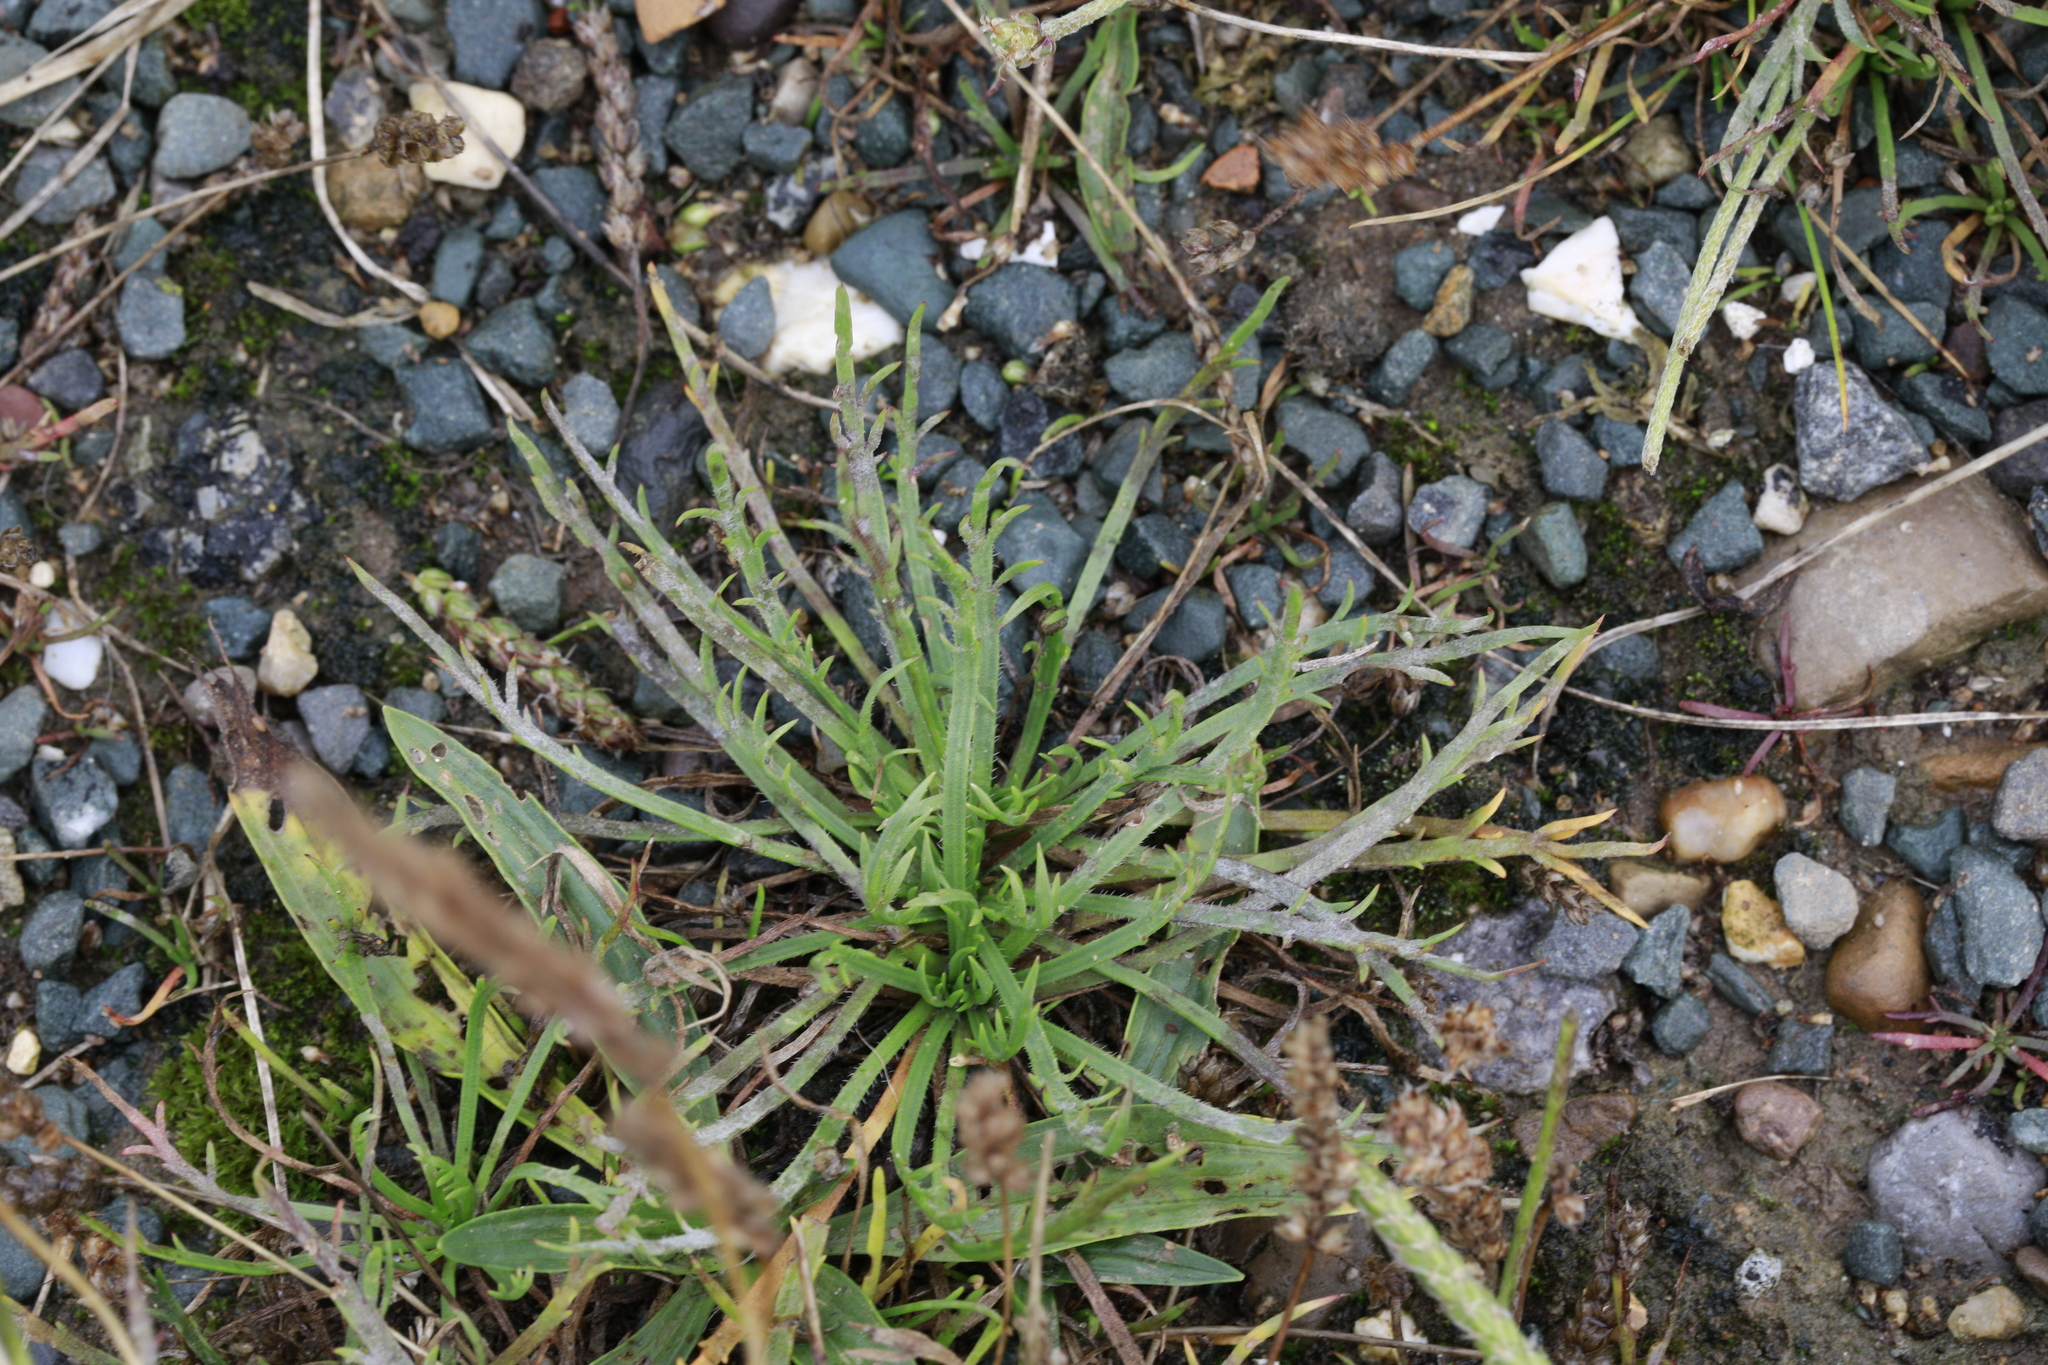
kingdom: Plantae
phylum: Tracheophyta
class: Magnoliopsida
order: Lamiales
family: Plantaginaceae
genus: Plantago
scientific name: Plantago coronopus
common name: Buck's-horn plantain
